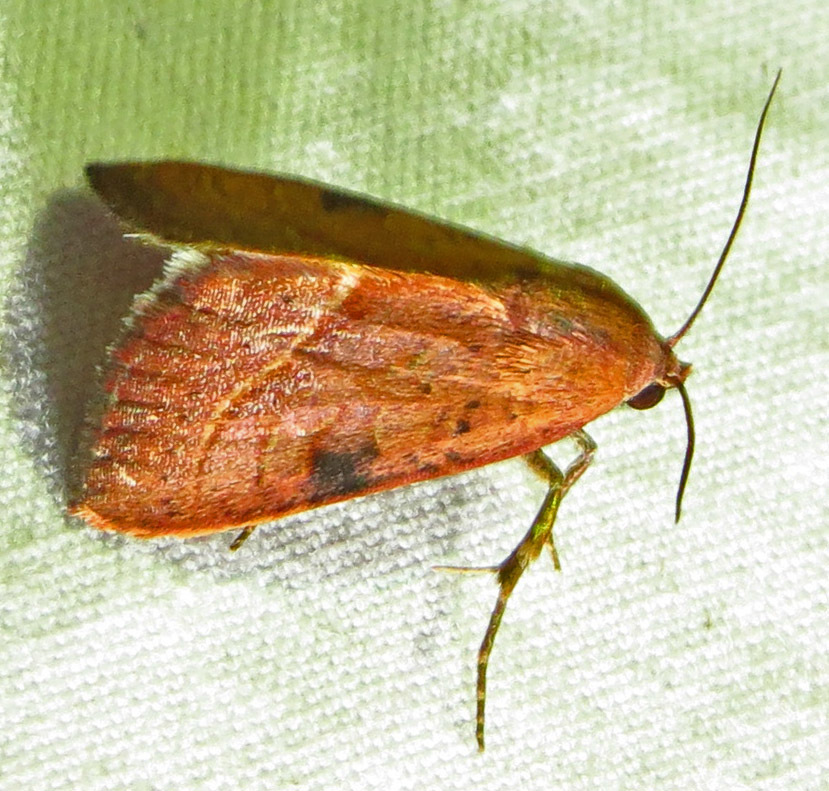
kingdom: Animalia
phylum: Arthropoda
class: Insecta
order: Lepidoptera
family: Noctuidae
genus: Galgula
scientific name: Galgula partita
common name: Wedgeling
